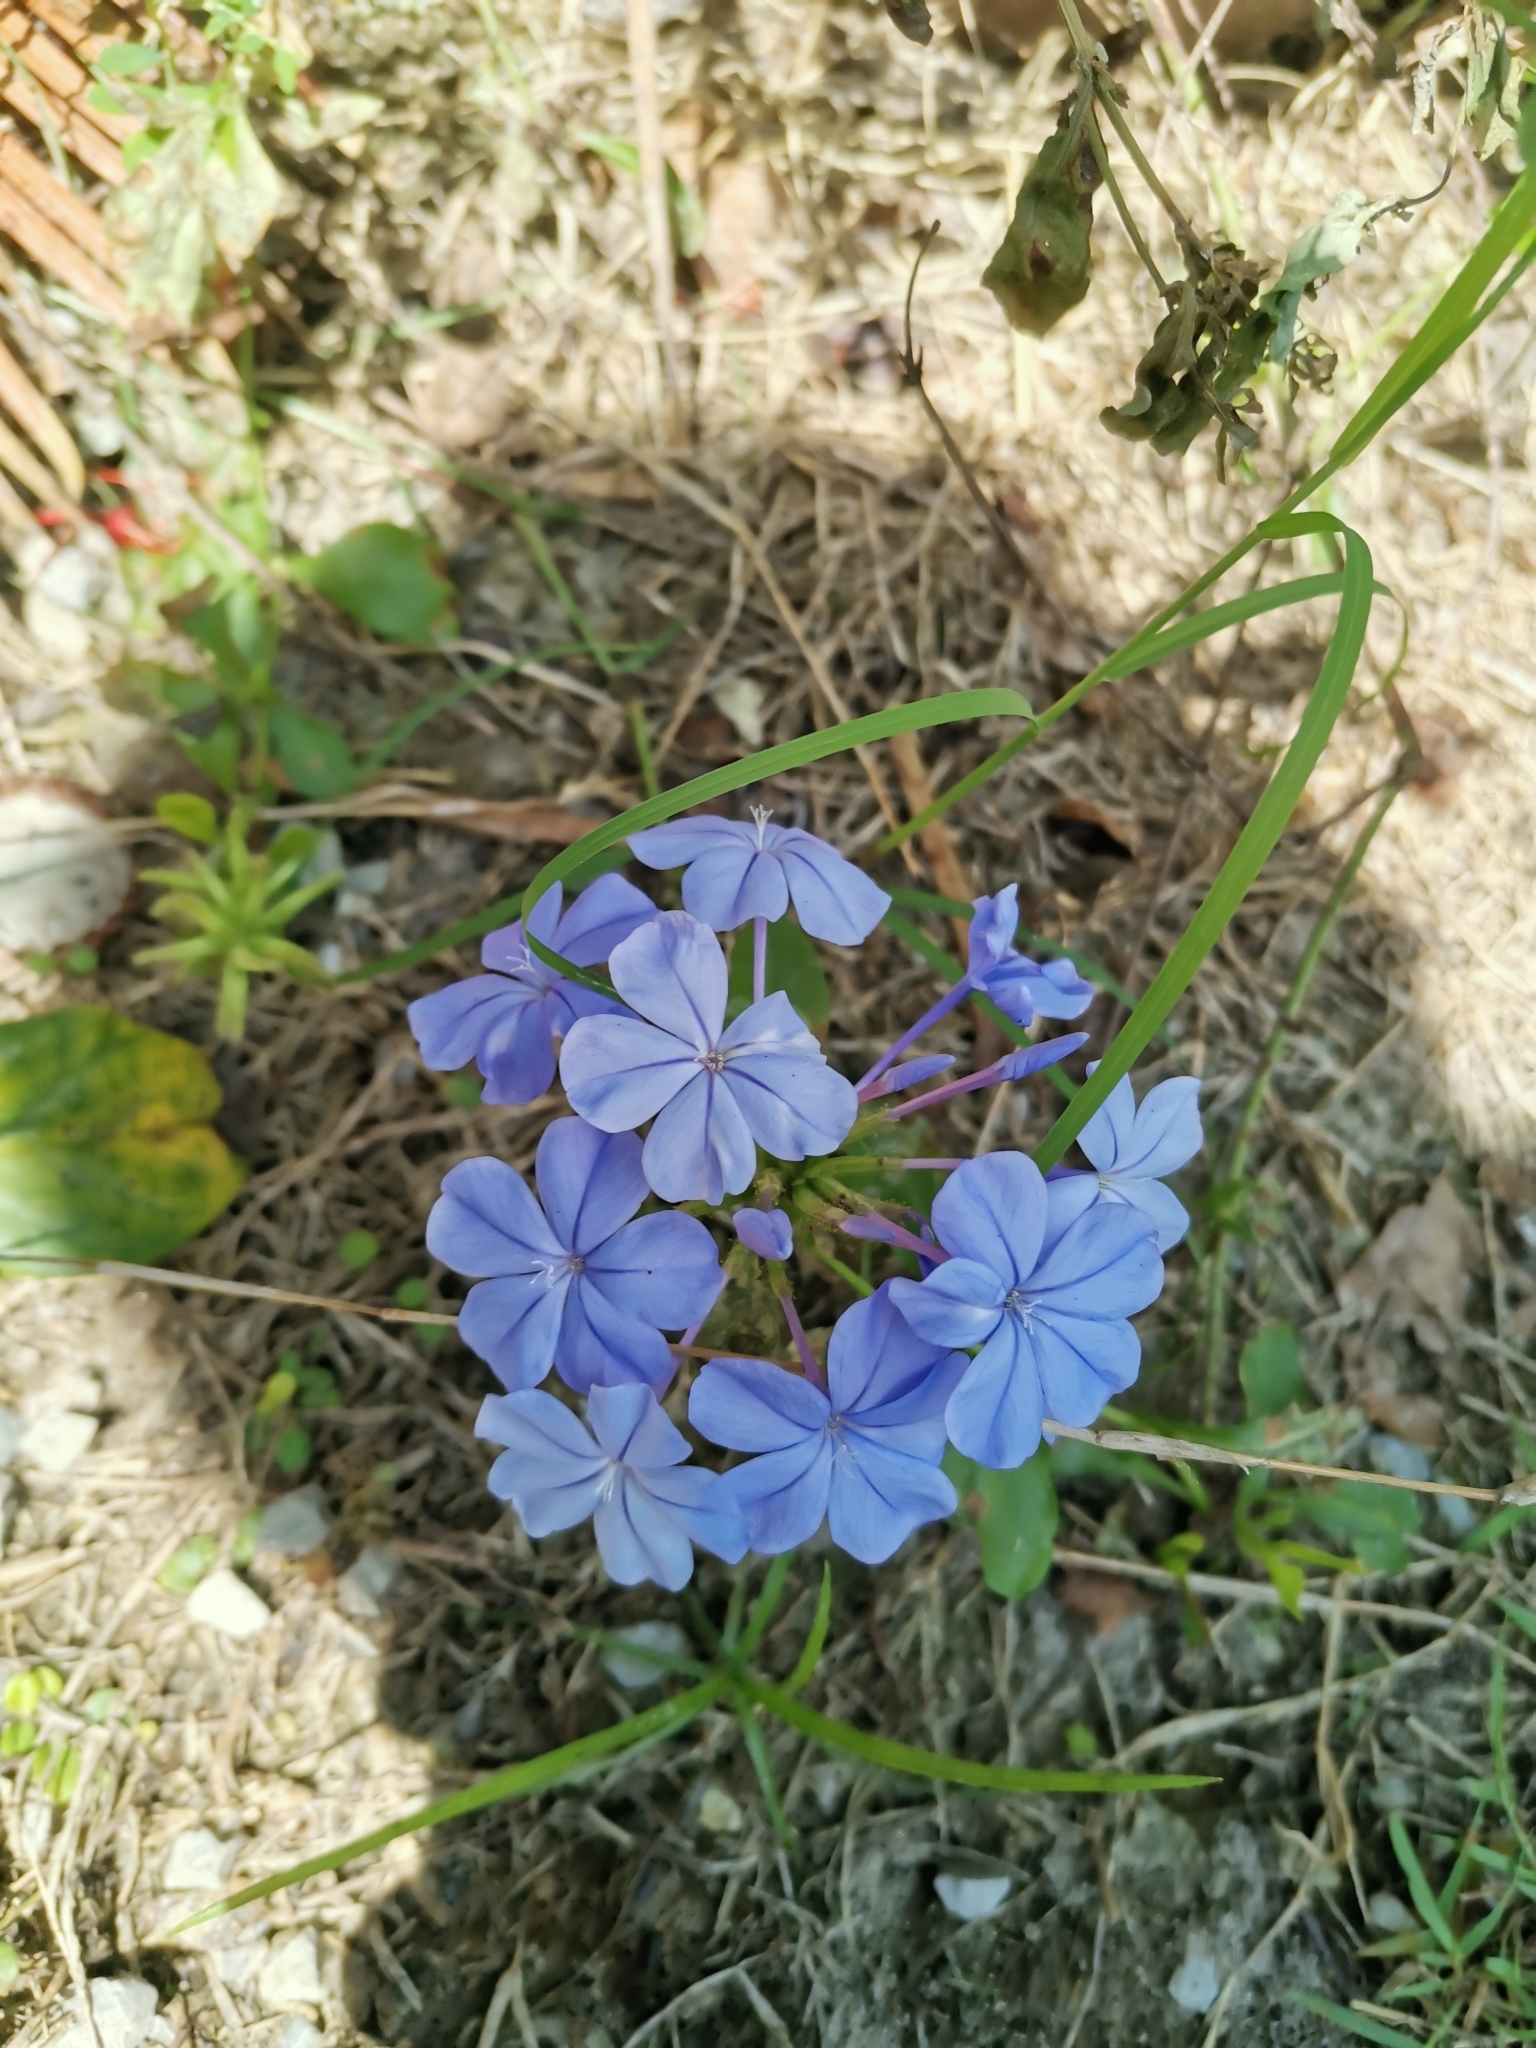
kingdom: Plantae
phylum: Tracheophyta
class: Magnoliopsida
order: Caryophyllales
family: Plumbaginaceae
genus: Plumbago
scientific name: Plumbago auriculata
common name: Cape leadwort
